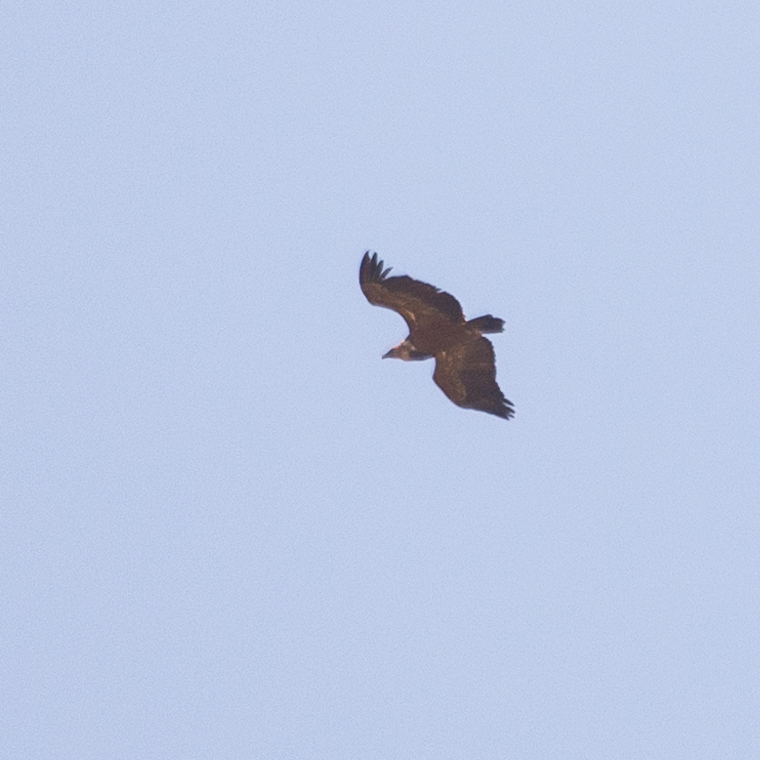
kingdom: Animalia
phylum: Chordata
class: Aves
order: Accipitriformes
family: Accipitridae
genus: Gyps
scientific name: Gyps fulvus
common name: Griffon vulture
